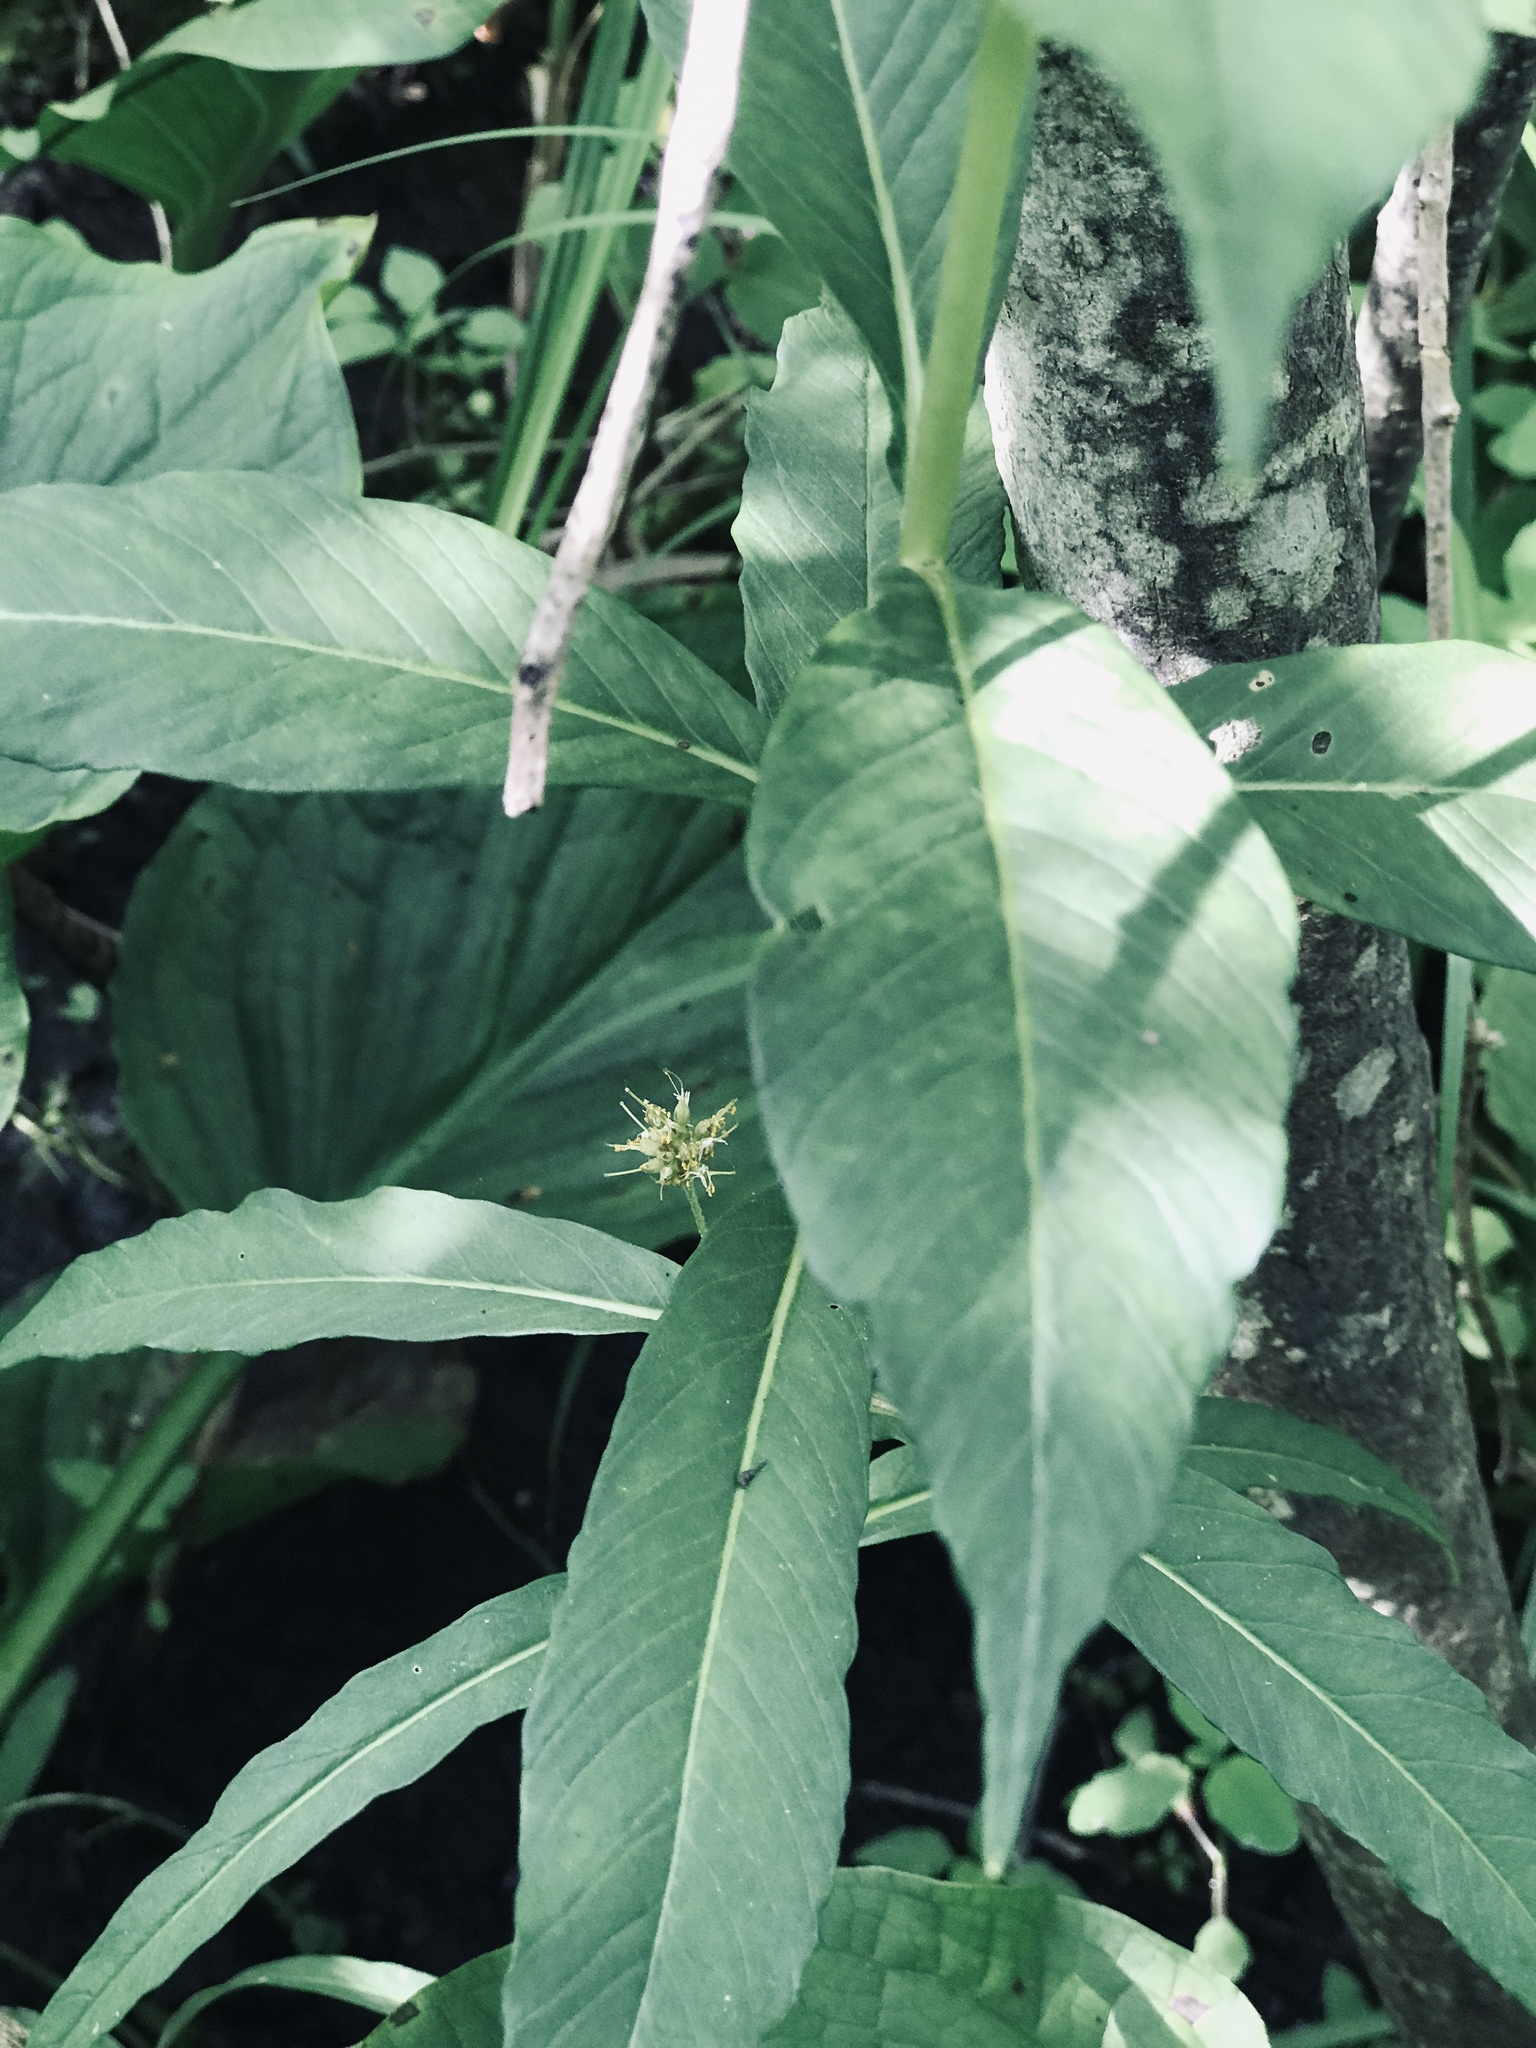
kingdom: Plantae
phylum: Tracheophyta
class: Magnoliopsida
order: Ericales
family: Primulaceae
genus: Lysimachia
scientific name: Lysimachia thyrsiflora
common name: Tufted loosestrife
